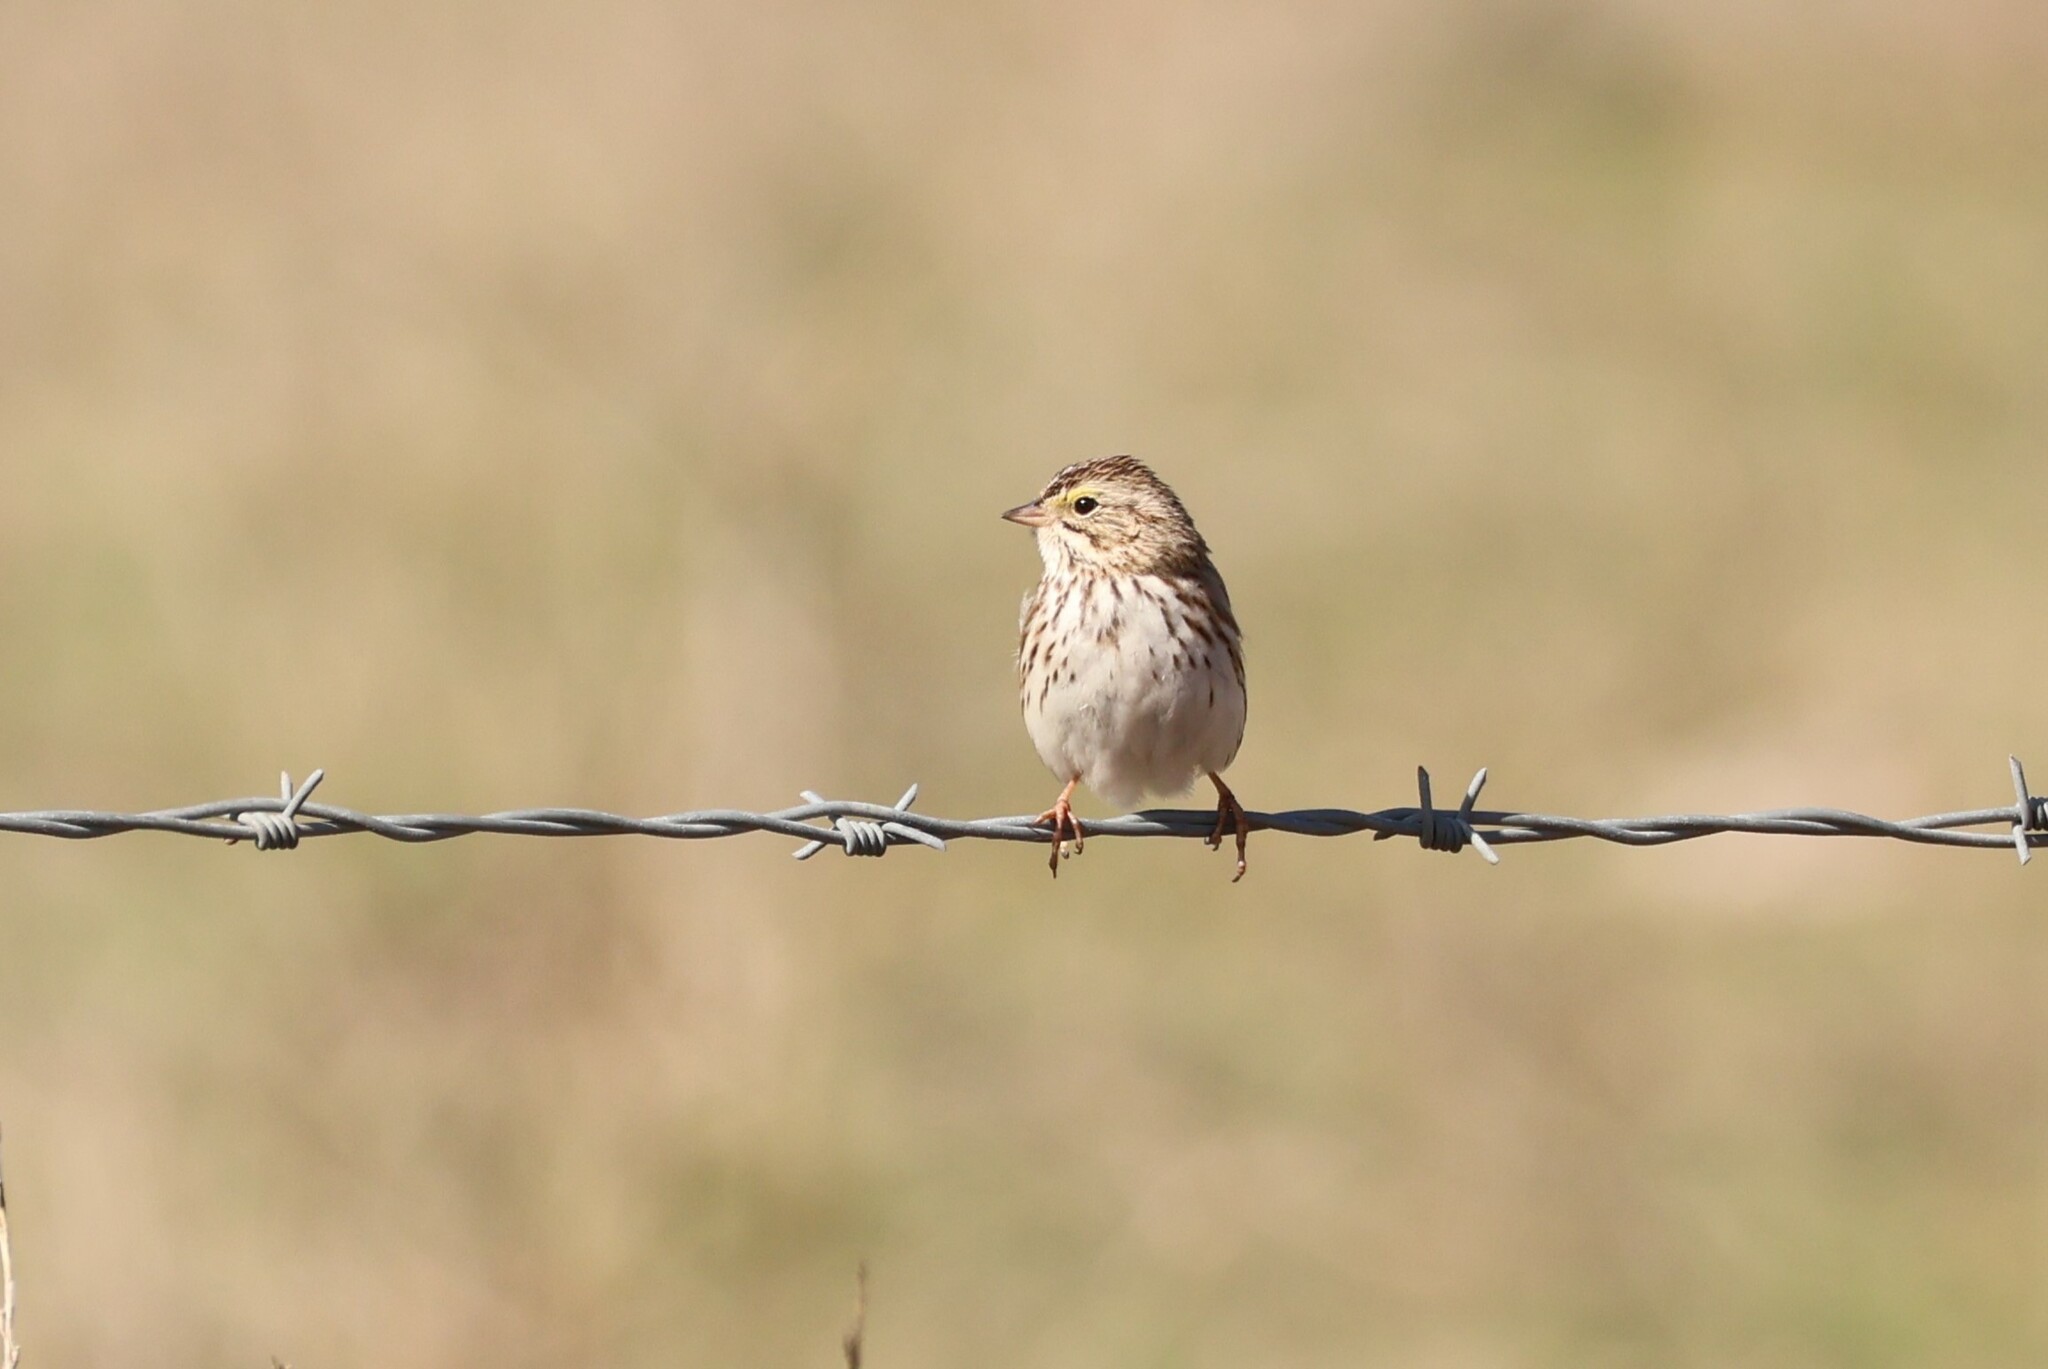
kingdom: Animalia
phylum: Chordata
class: Aves
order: Passeriformes
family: Passerellidae
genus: Passerculus
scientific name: Passerculus sandwichensis
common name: Savannah sparrow
